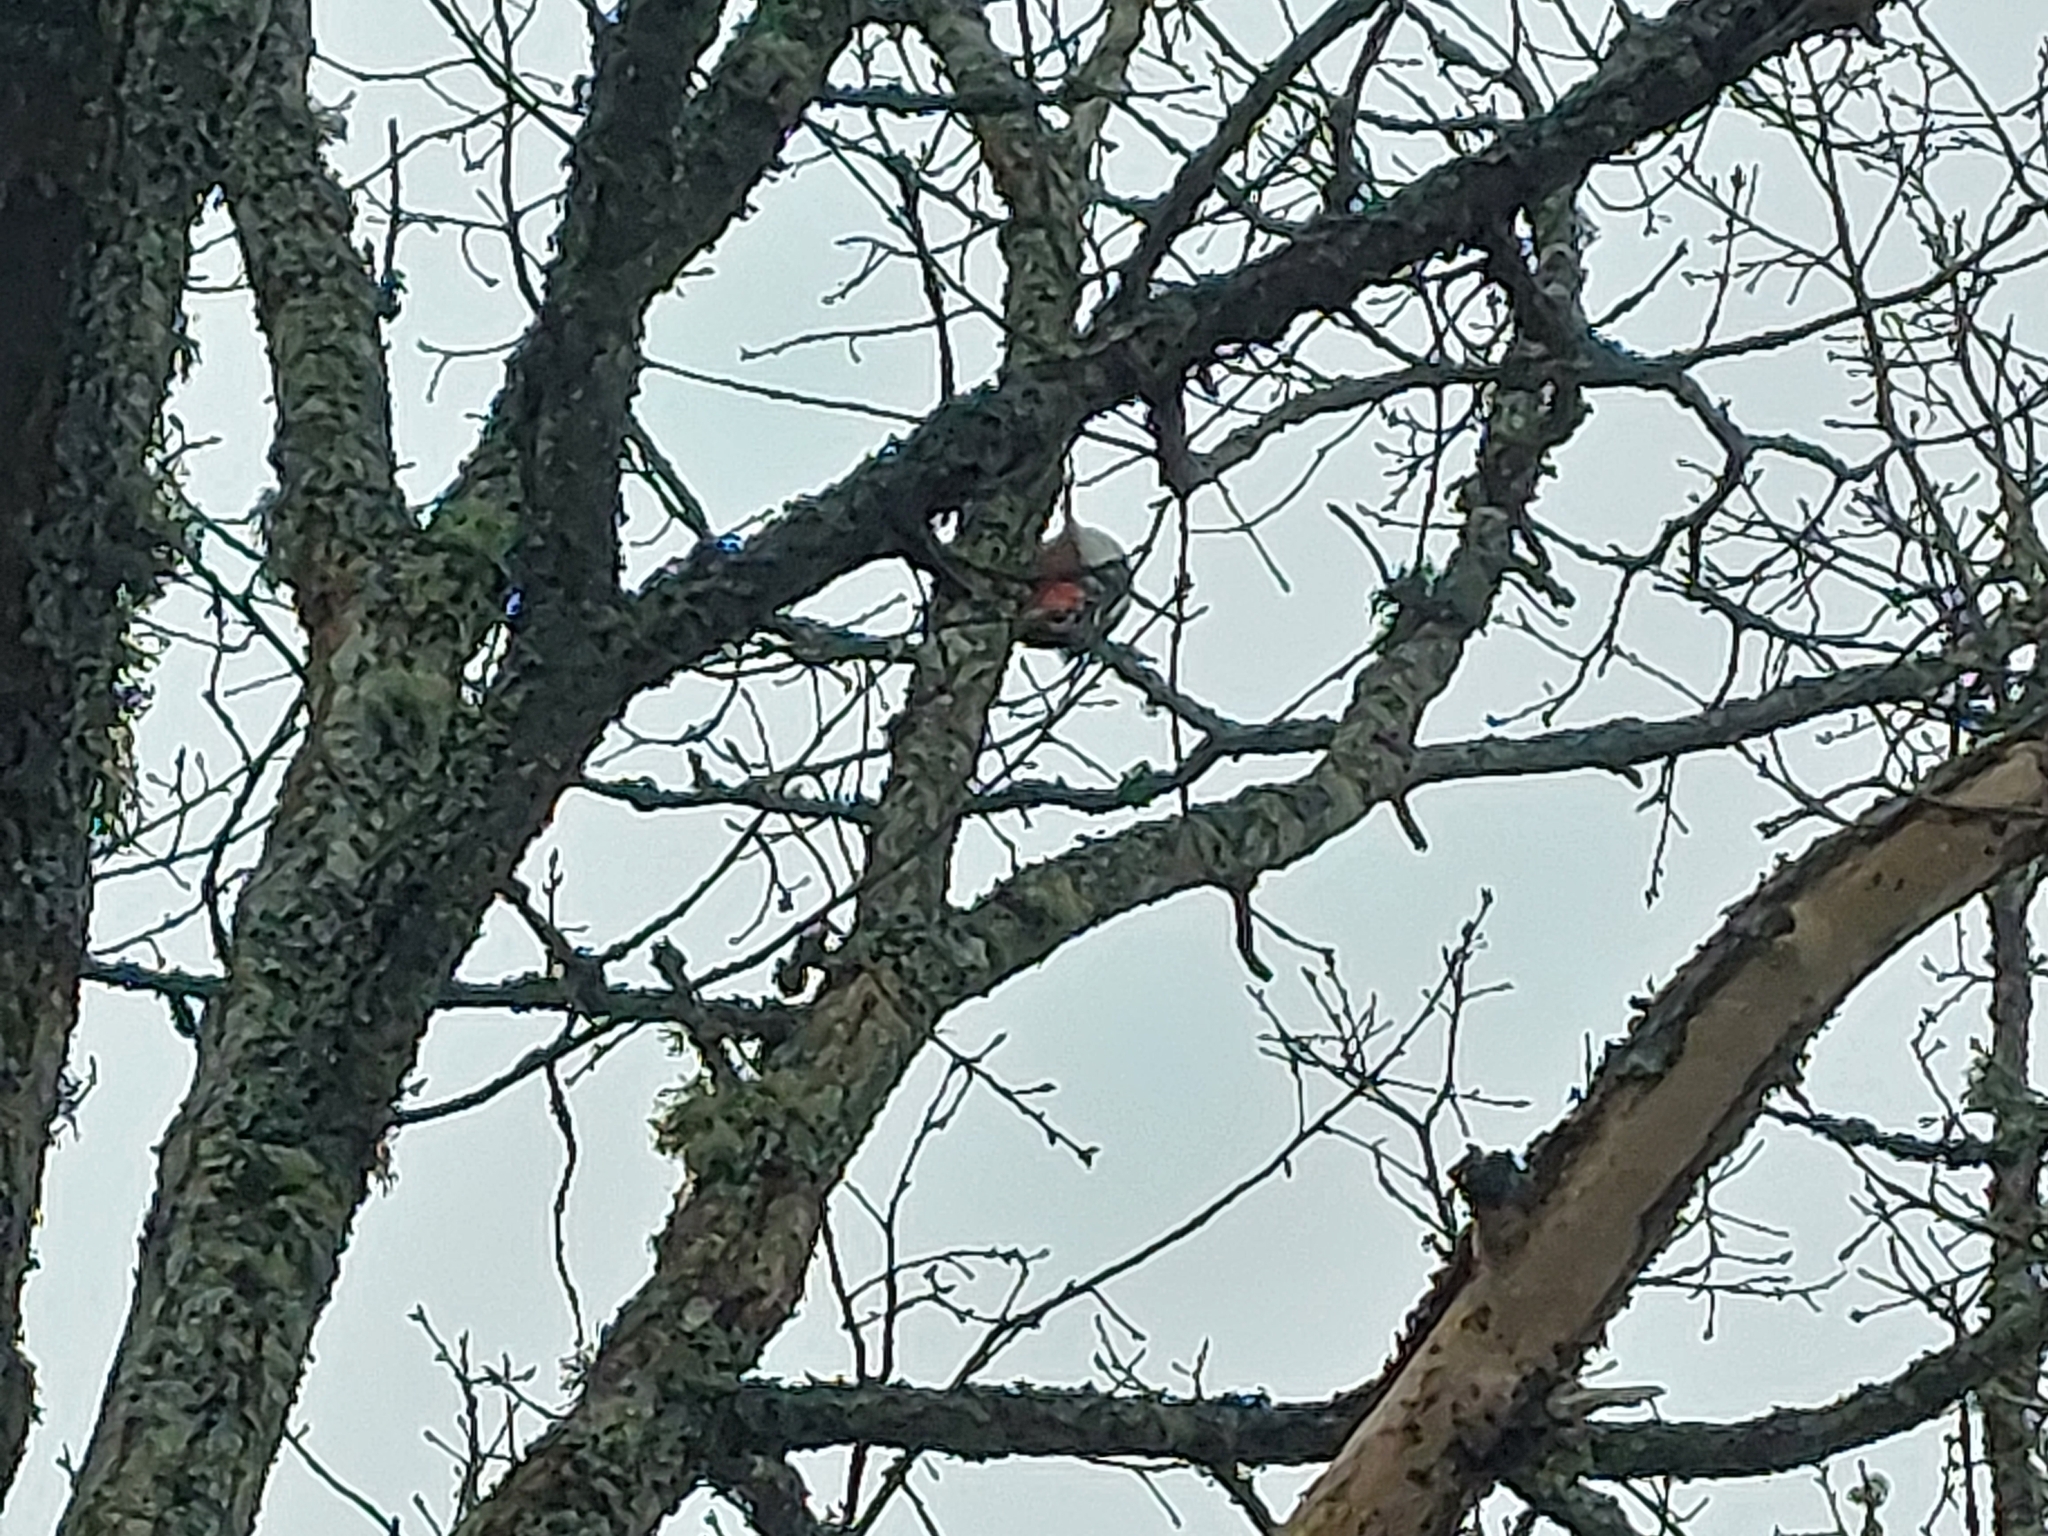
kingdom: Animalia
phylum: Chordata
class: Aves
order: Piciformes
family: Picidae
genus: Dendrocopos
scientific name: Dendrocopos major
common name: Great spotted woodpecker
